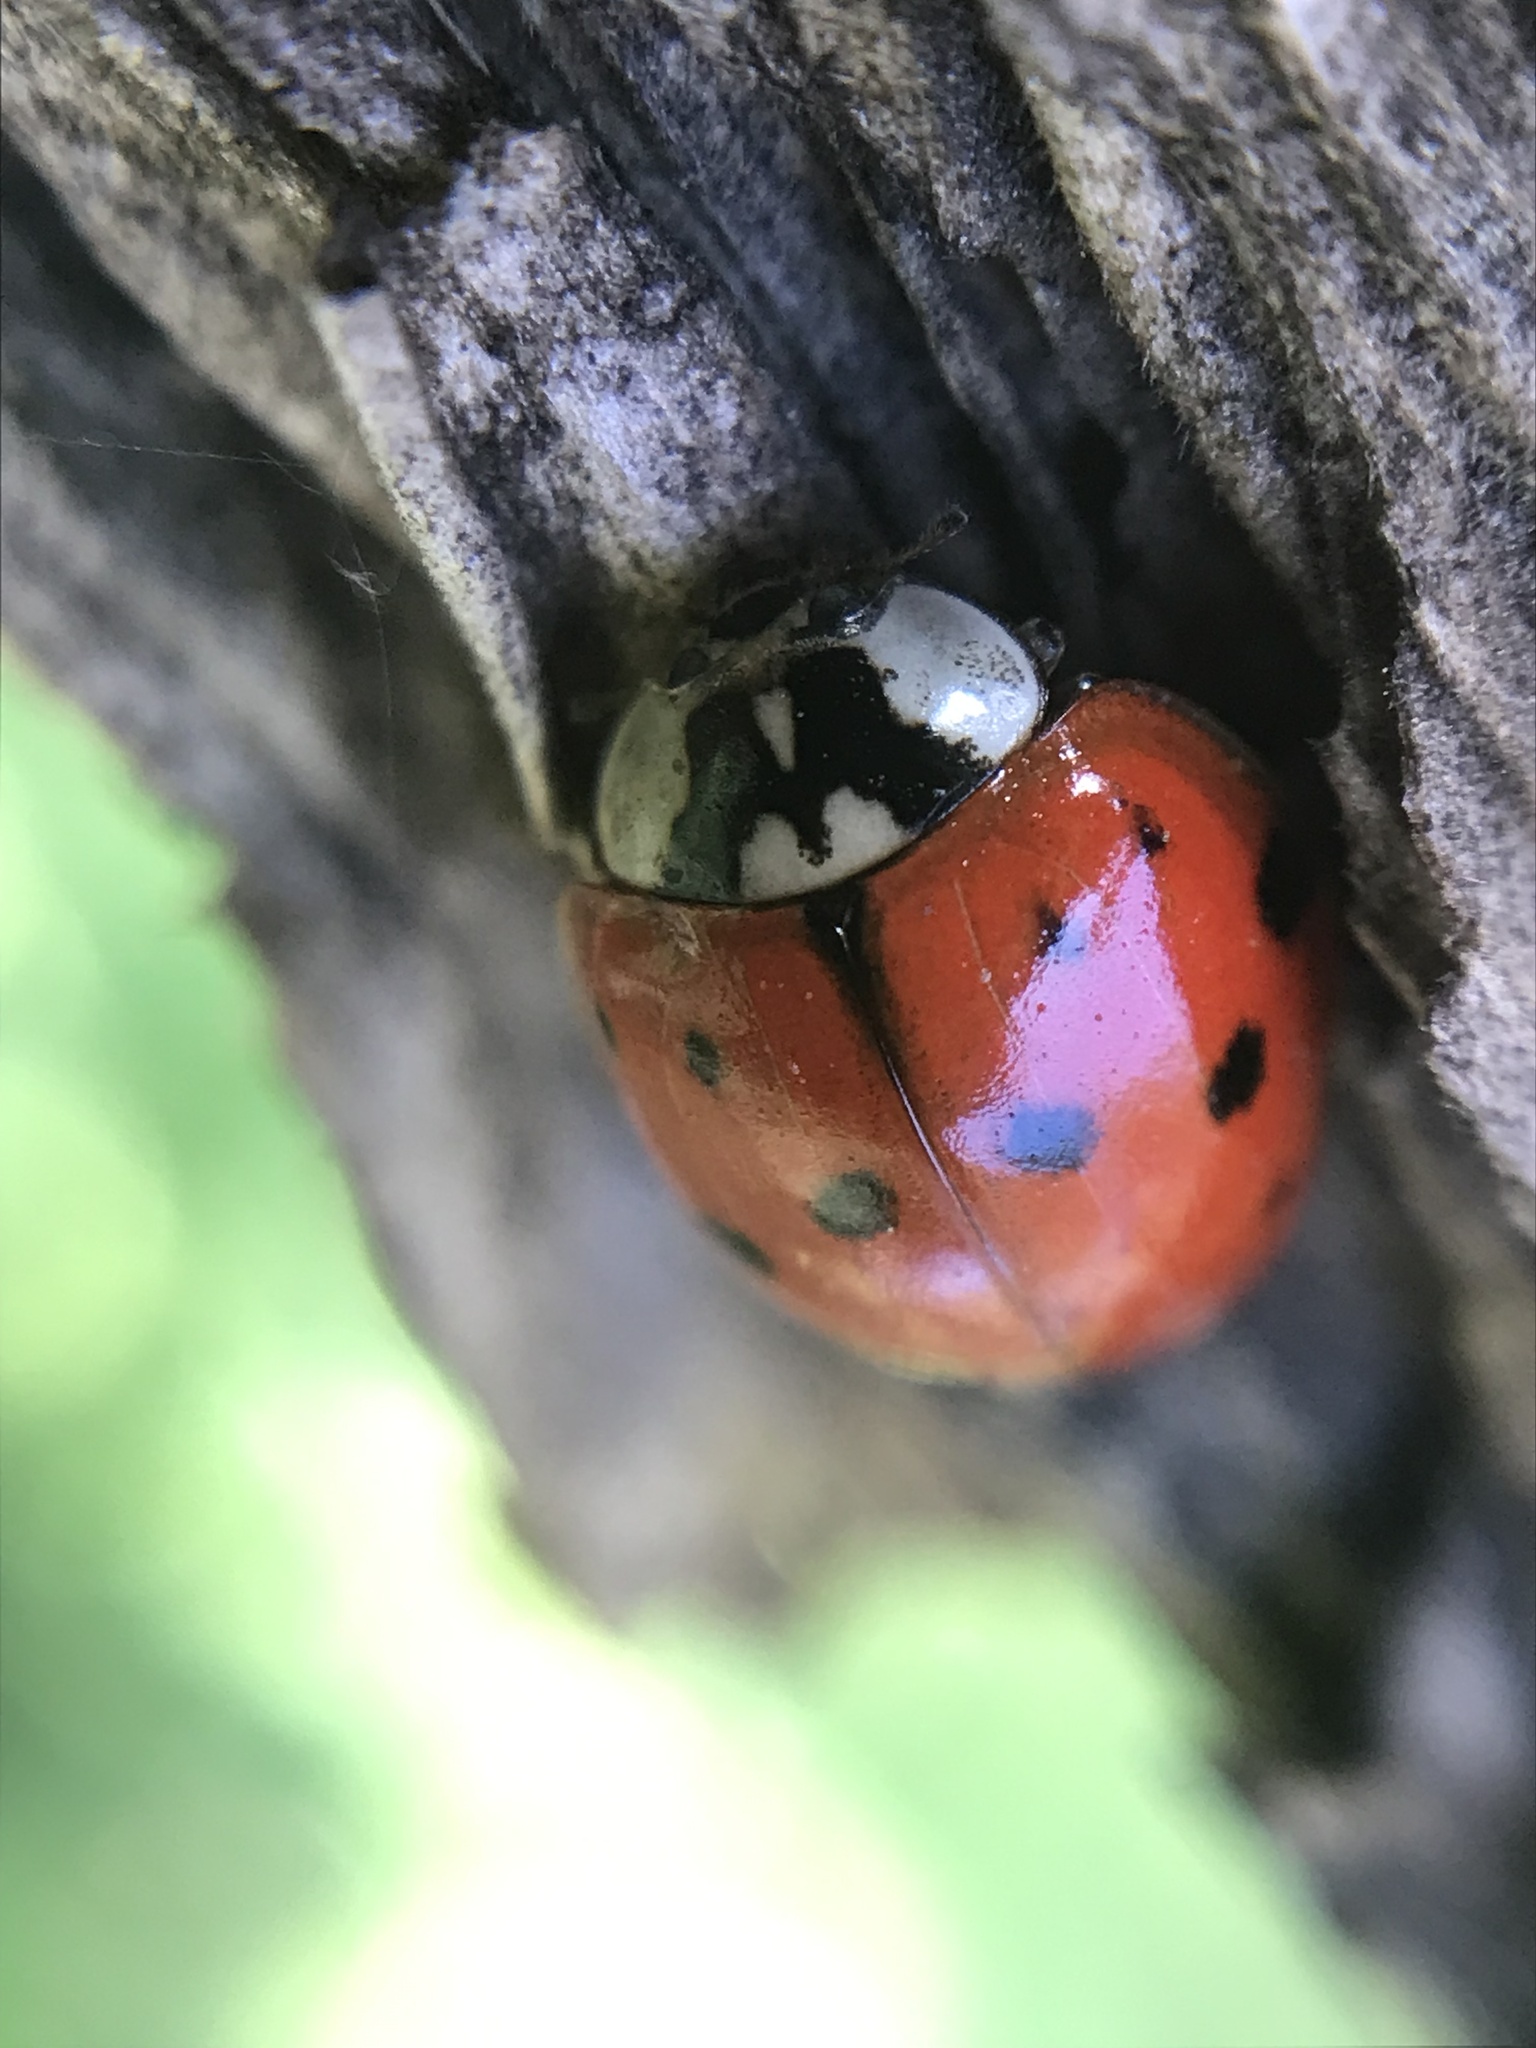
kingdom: Animalia
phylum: Arthropoda
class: Insecta
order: Coleoptera
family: Coccinellidae
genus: Harmonia
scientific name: Harmonia axyridis
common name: Harlequin ladybird
